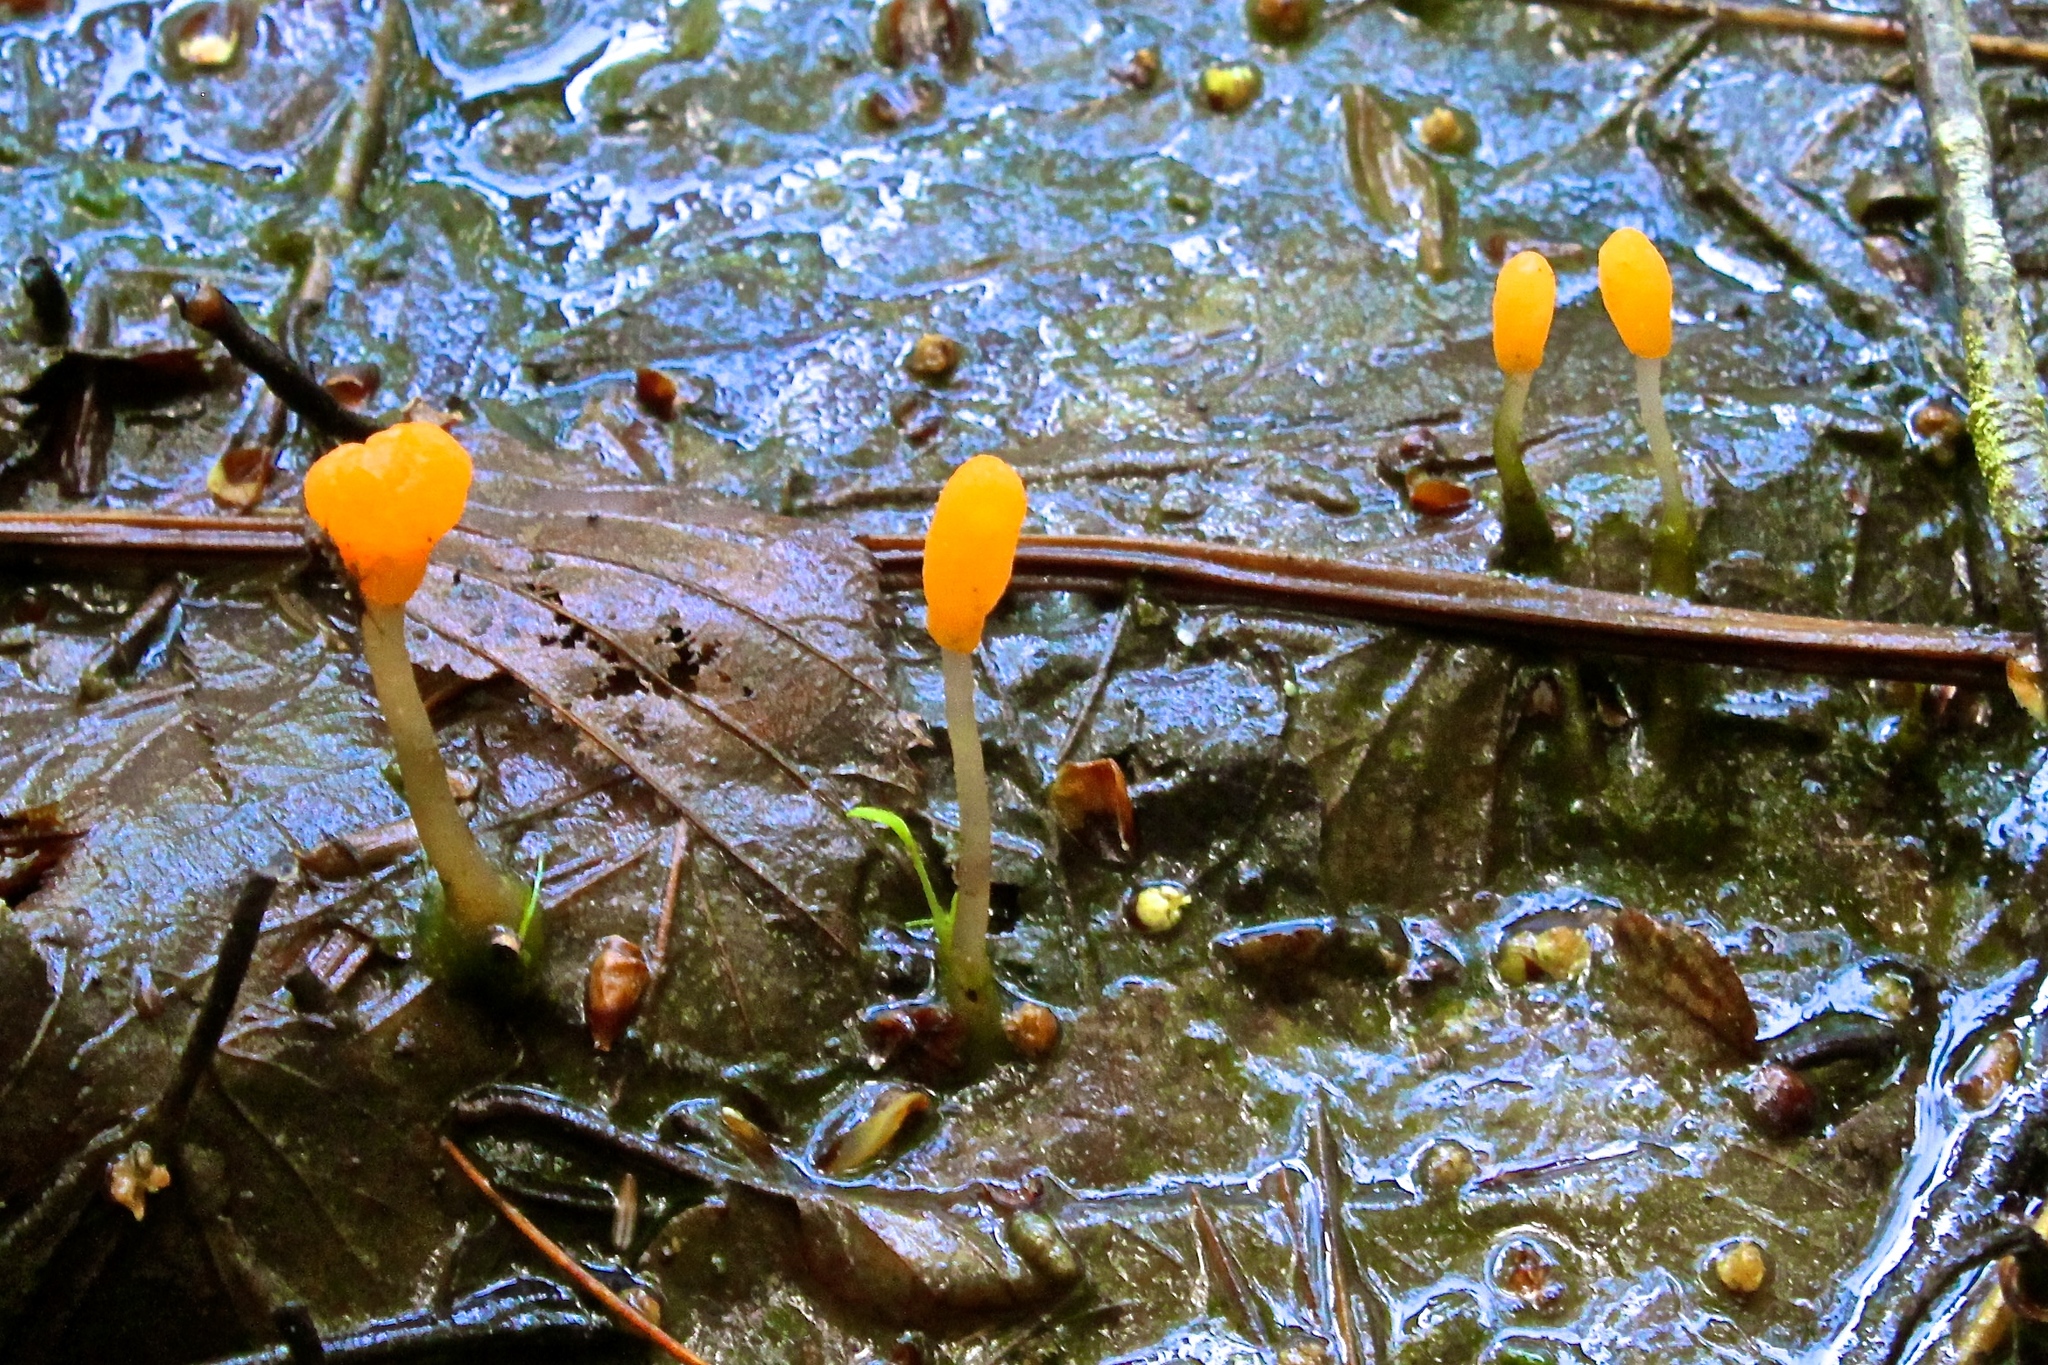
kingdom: Fungi
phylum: Ascomycota
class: Leotiomycetes
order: Helotiales
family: Sclerotiniaceae
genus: Mitrula
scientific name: Mitrula elegans
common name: Swamp beacon
